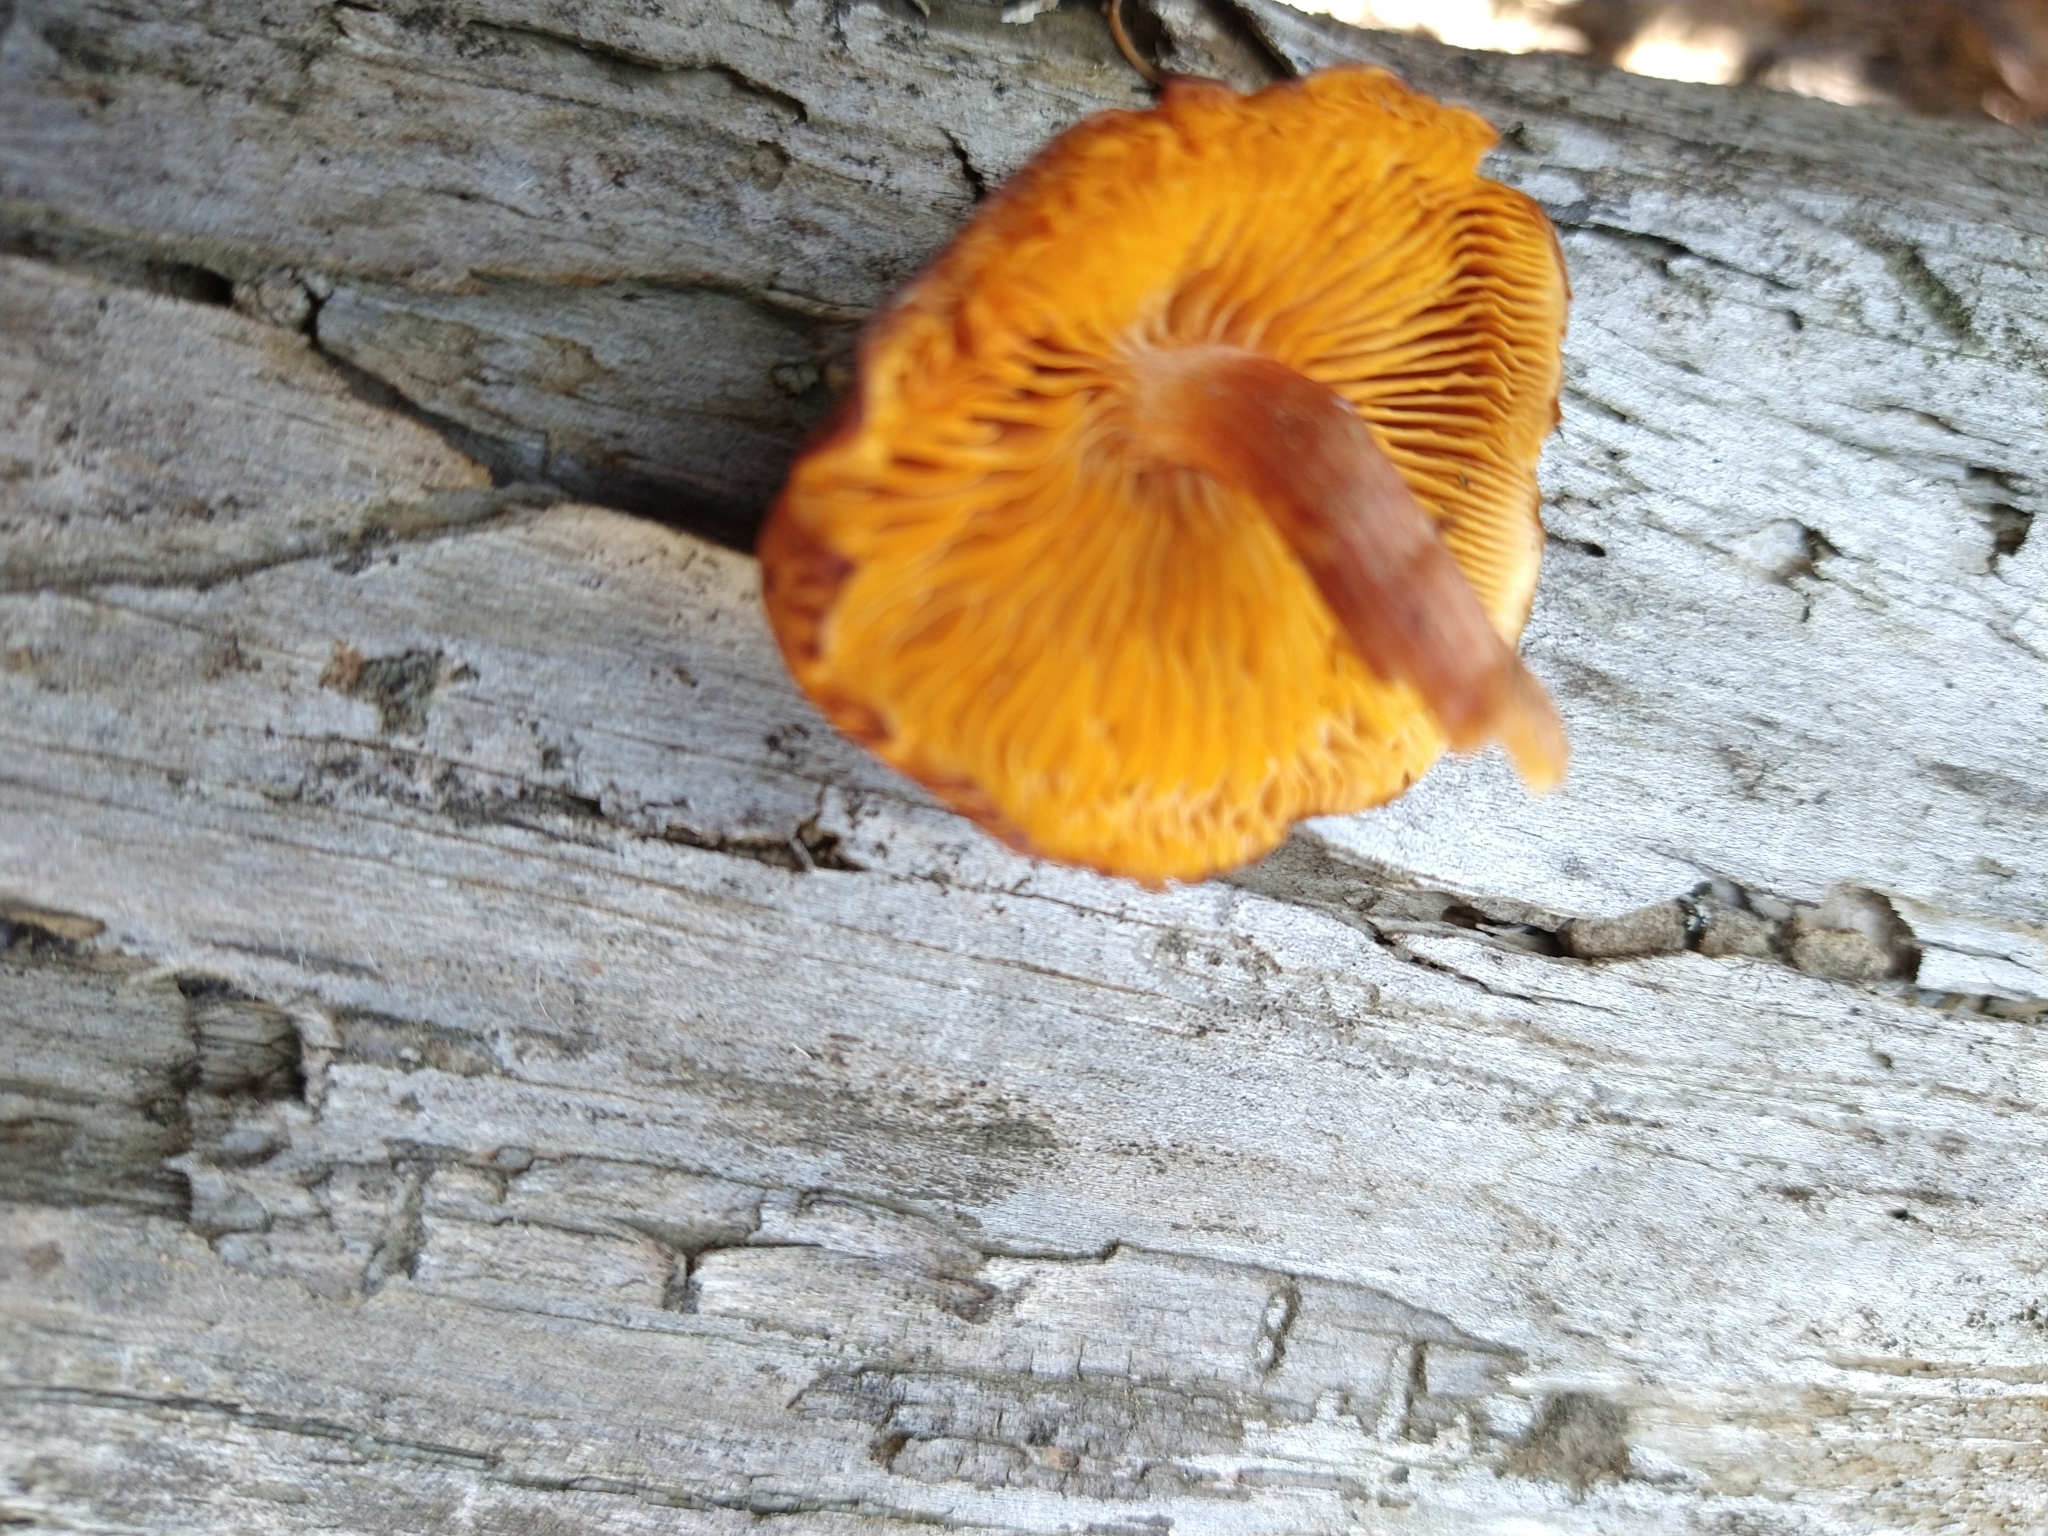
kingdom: Fungi
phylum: Basidiomycota
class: Agaricomycetes
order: Agaricales
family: Hymenogastraceae
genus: Gymnopilus
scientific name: Gymnopilus luteofolius
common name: Yellow-gilled gymnopilus
